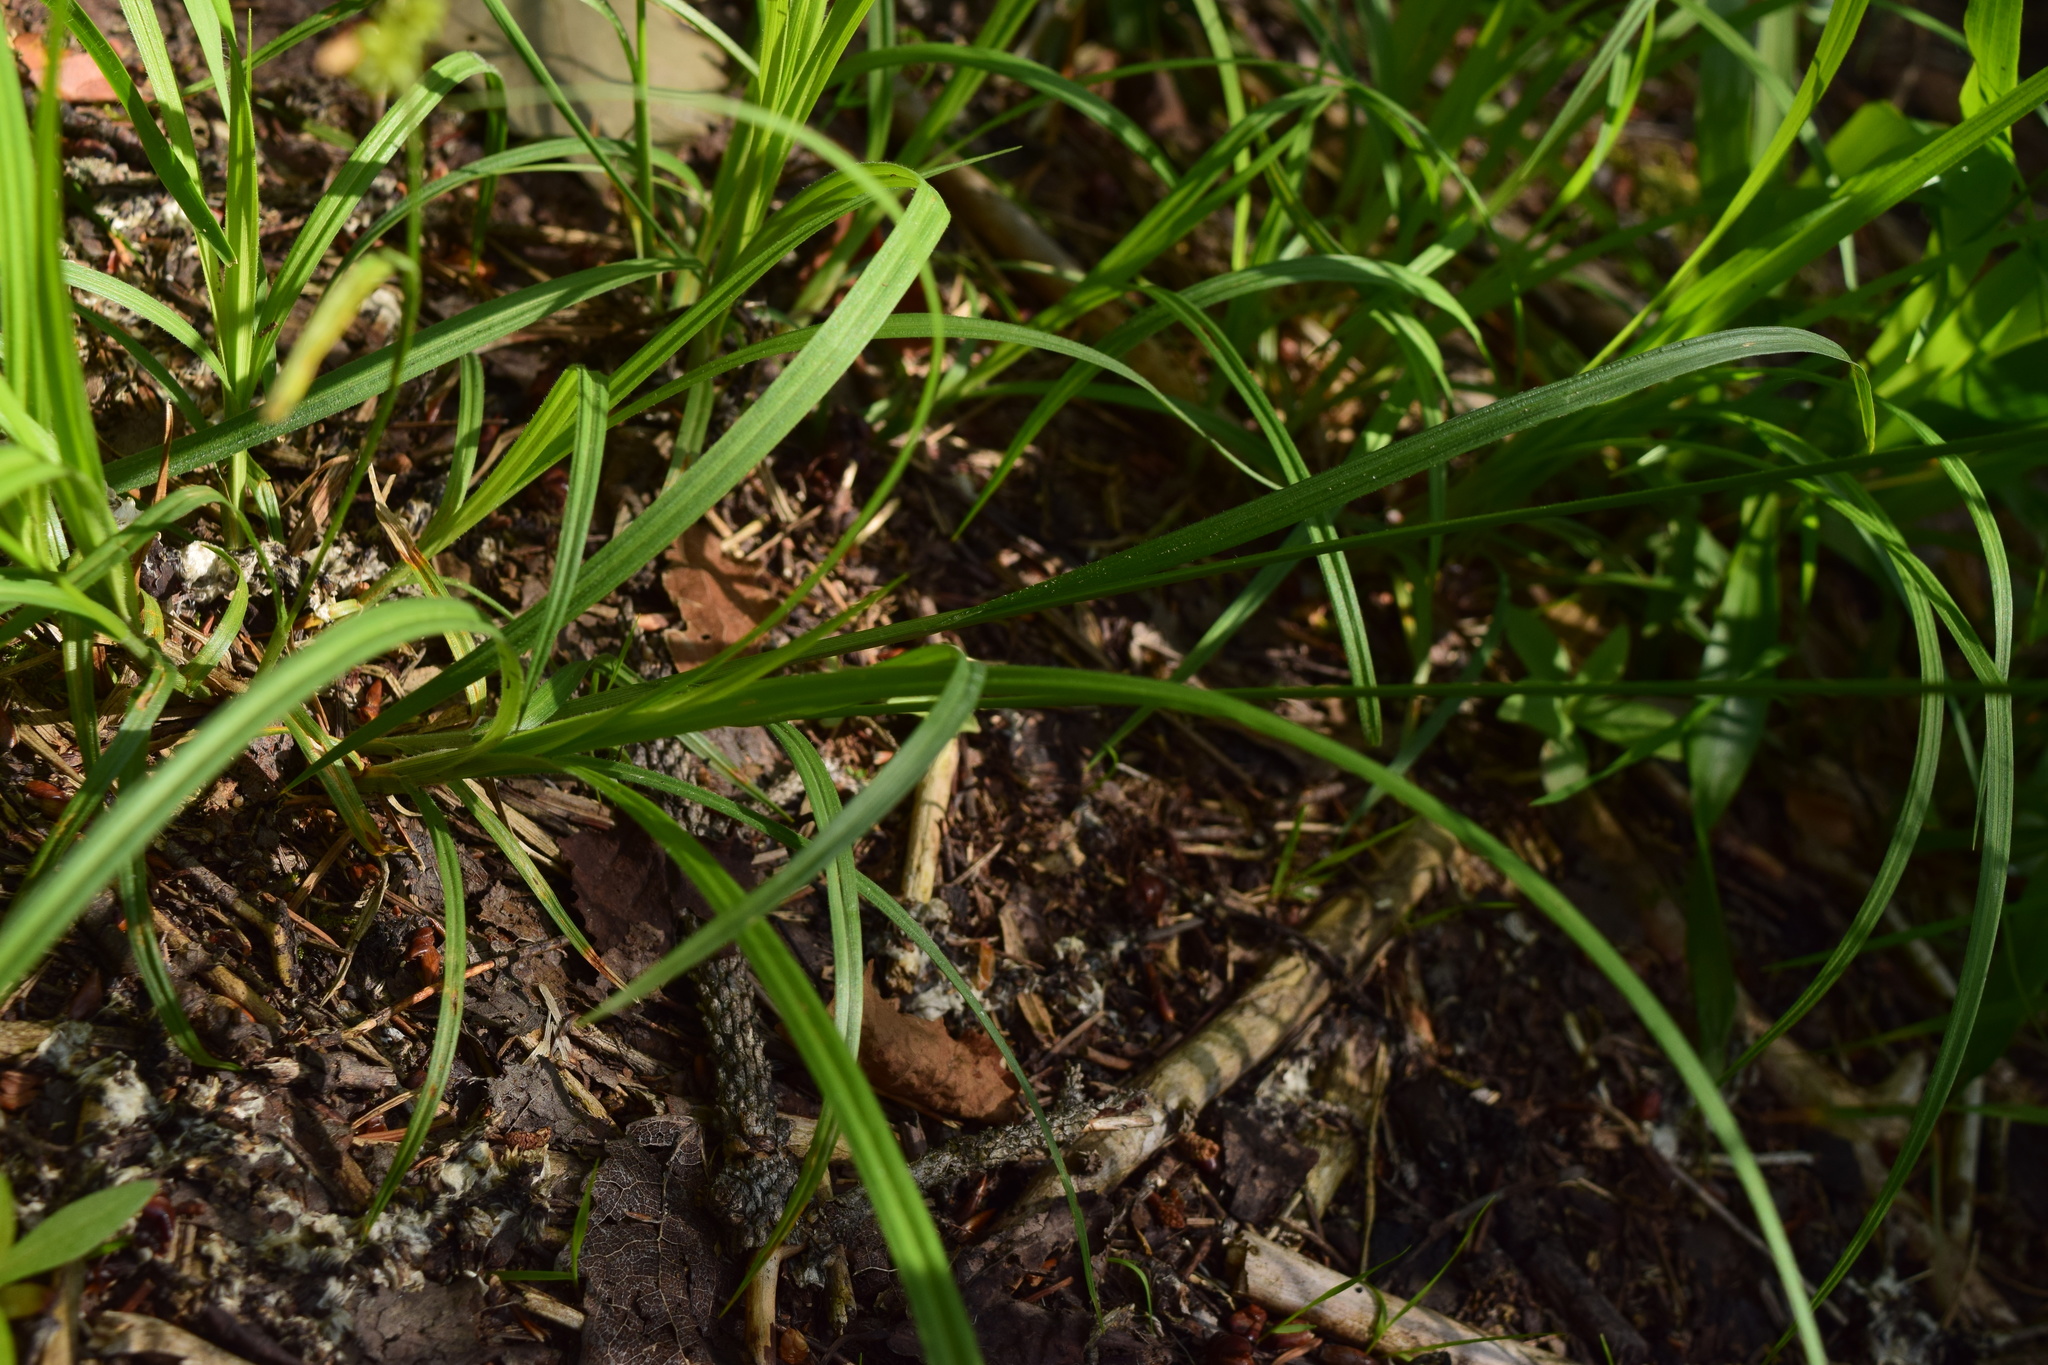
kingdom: Plantae
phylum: Tracheophyta
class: Liliopsida
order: Poales
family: Cyperaceae
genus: Carex
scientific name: Carex pallescens
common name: Pale sedge
